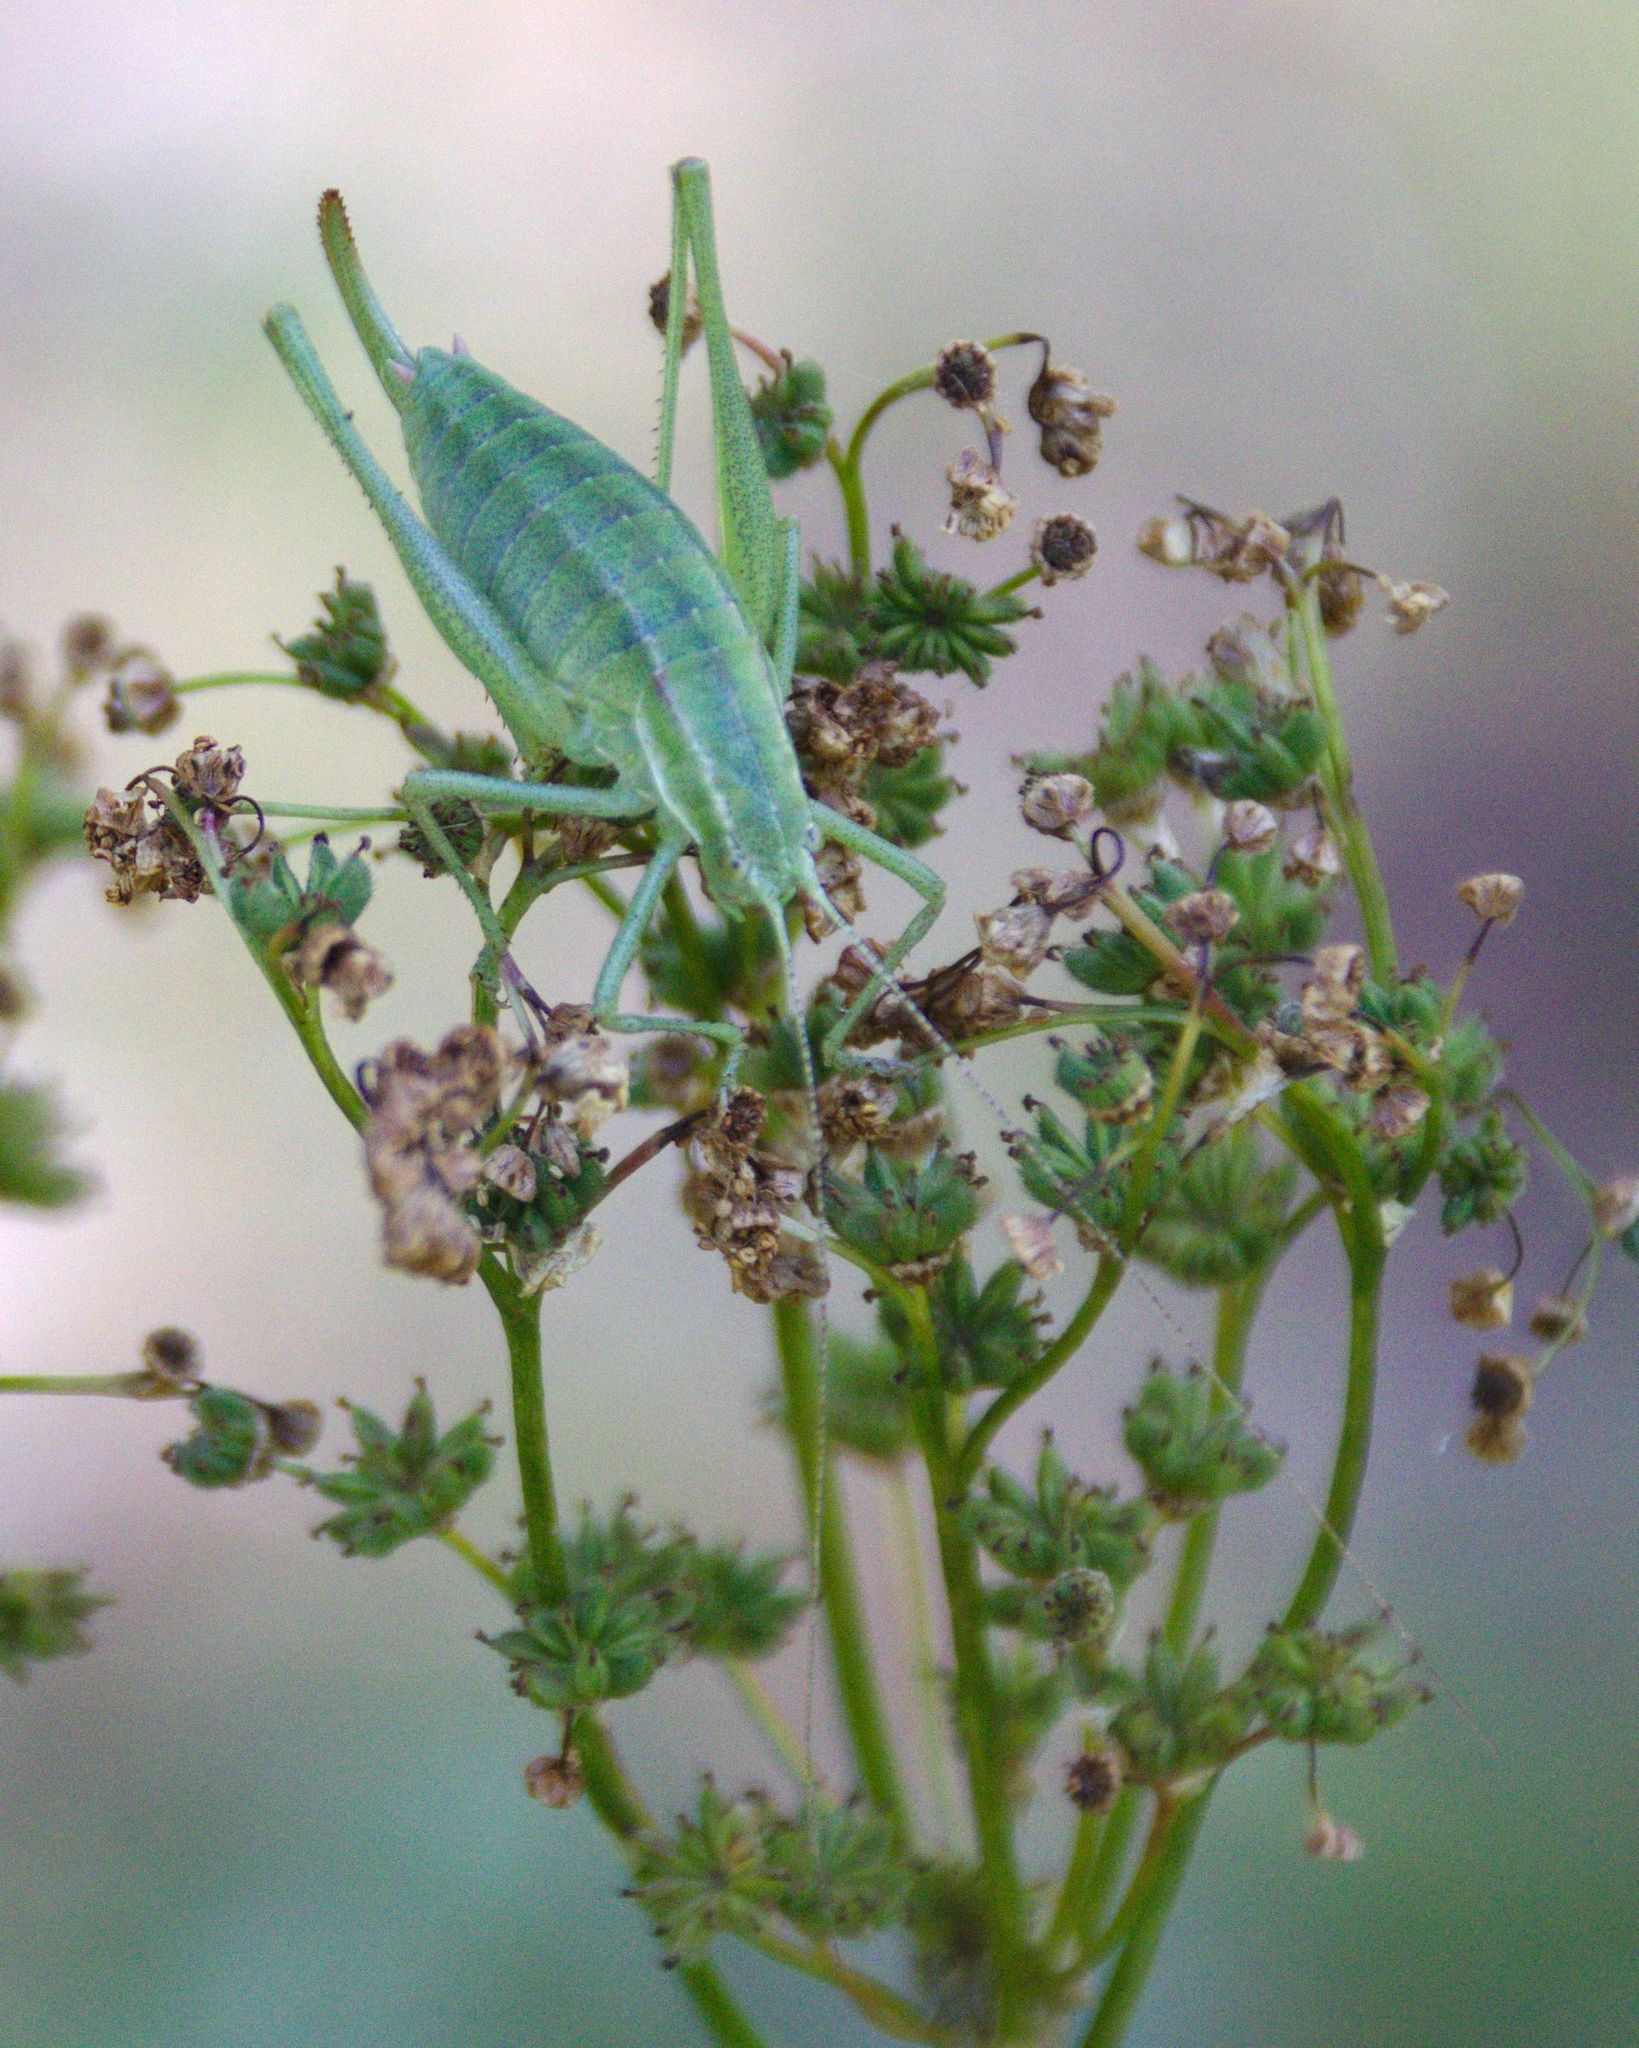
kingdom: Animalia
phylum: Arthropoda
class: Insecta
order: Orthoptera
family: Tettigoniidae
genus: Poecilimon
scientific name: Poecilimon intermedius
